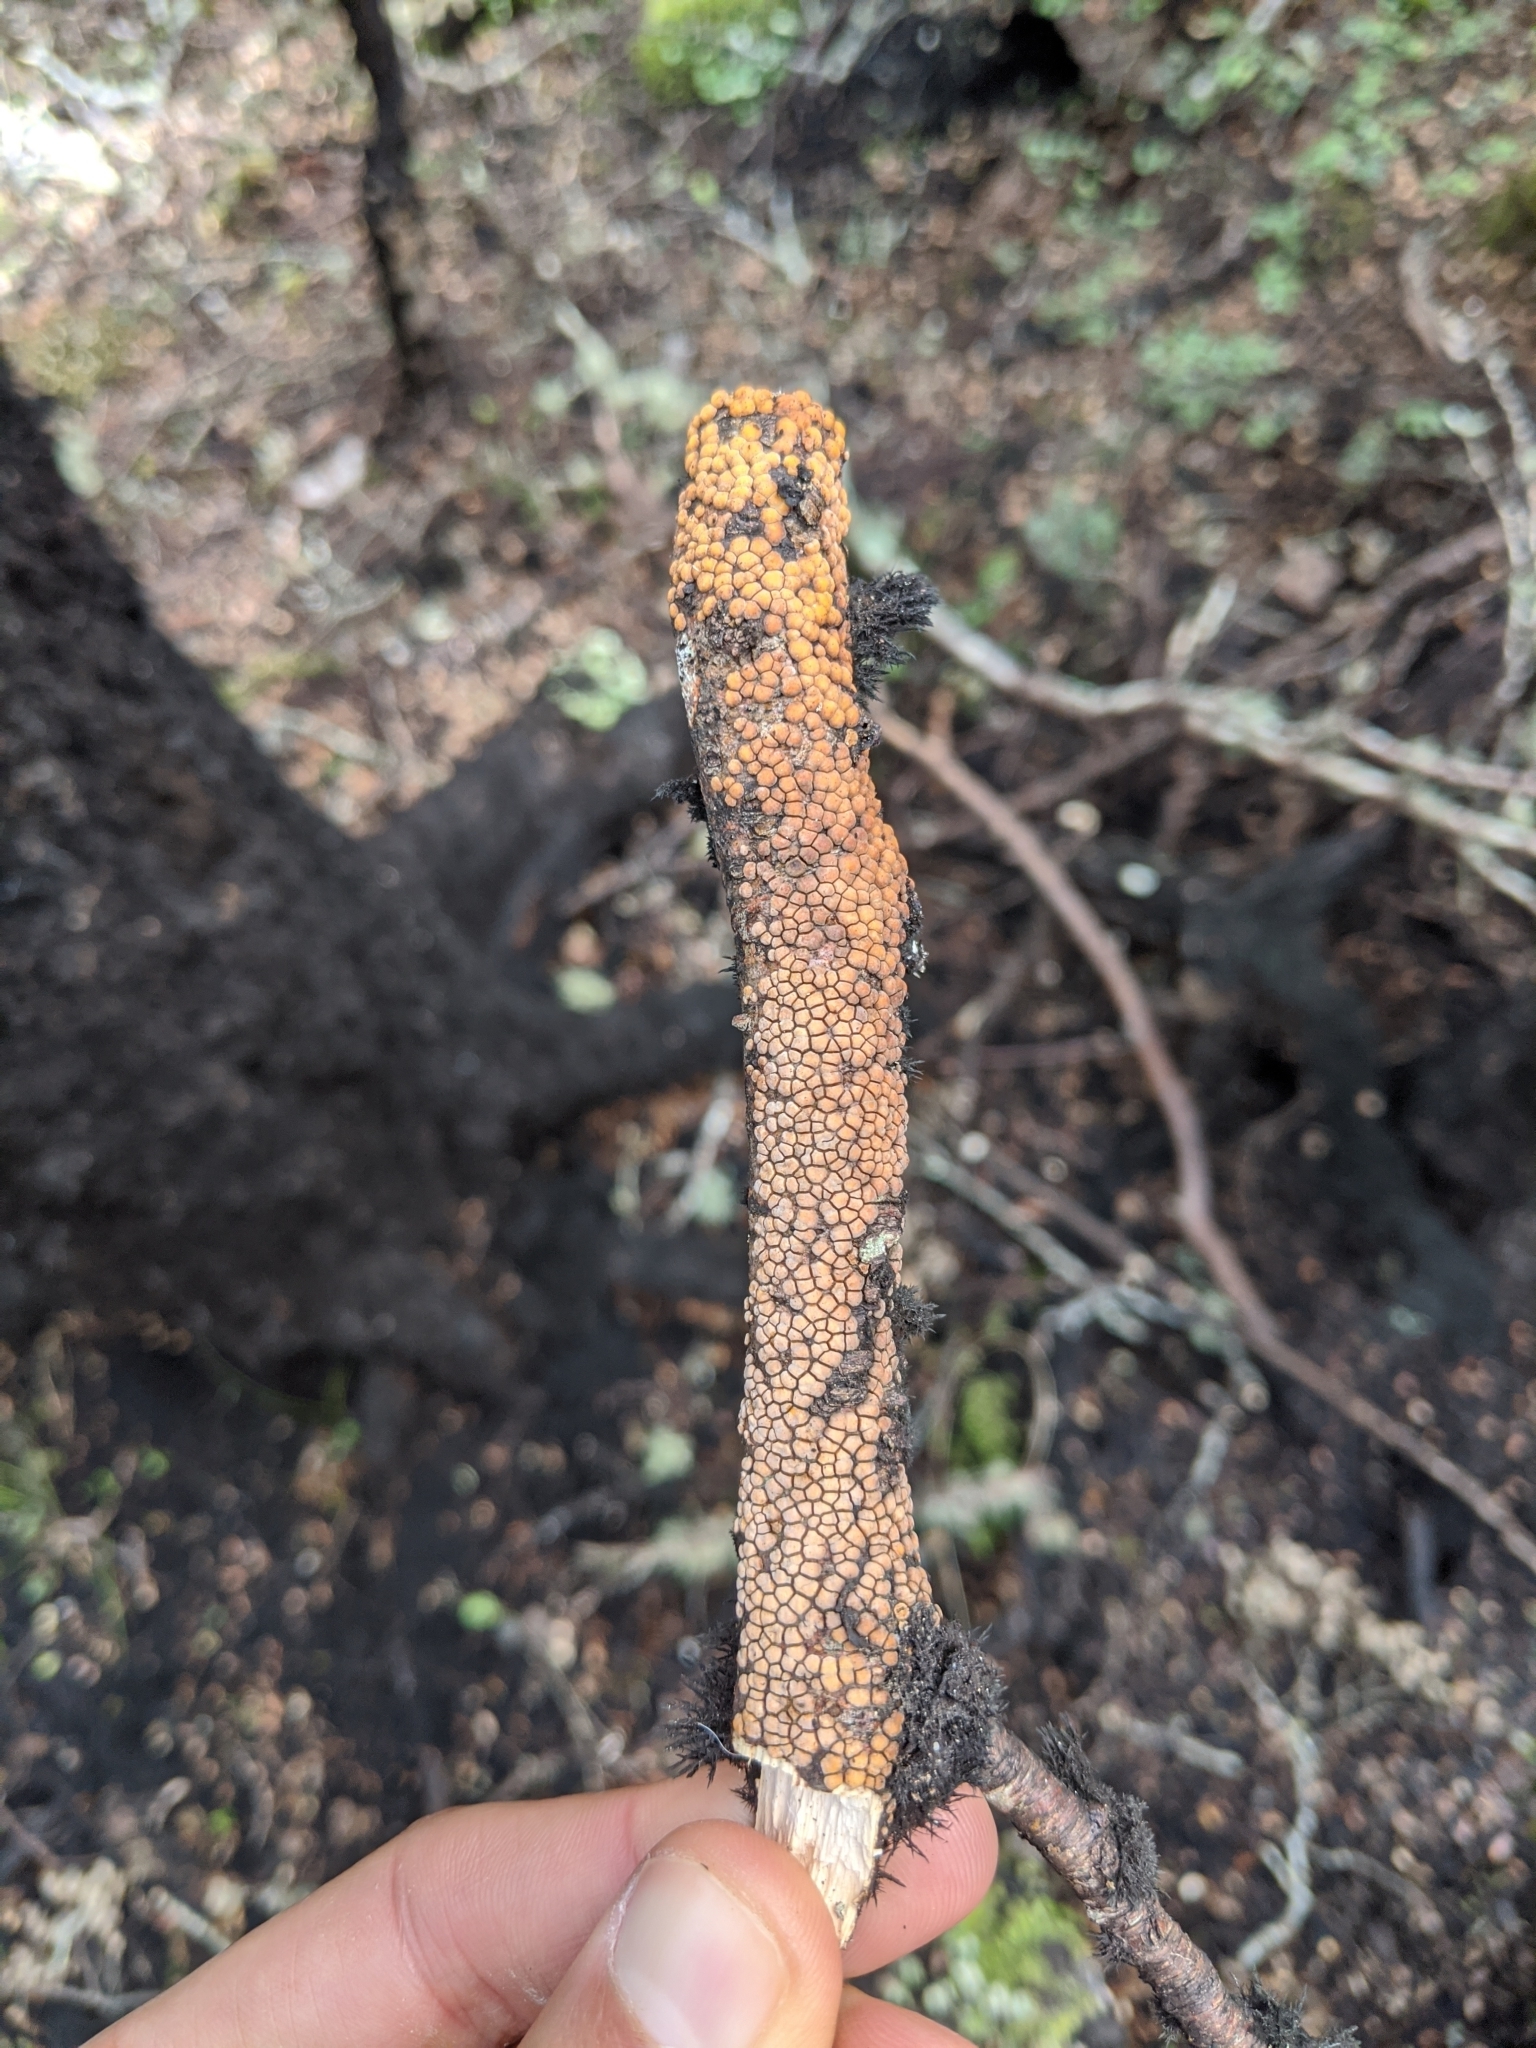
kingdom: Fungi
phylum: Basidiomycota
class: Agaricomycetes
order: Russulales
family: Stereaceae
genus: Aleurodiscus
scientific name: Aleurodiscus berggrenii
